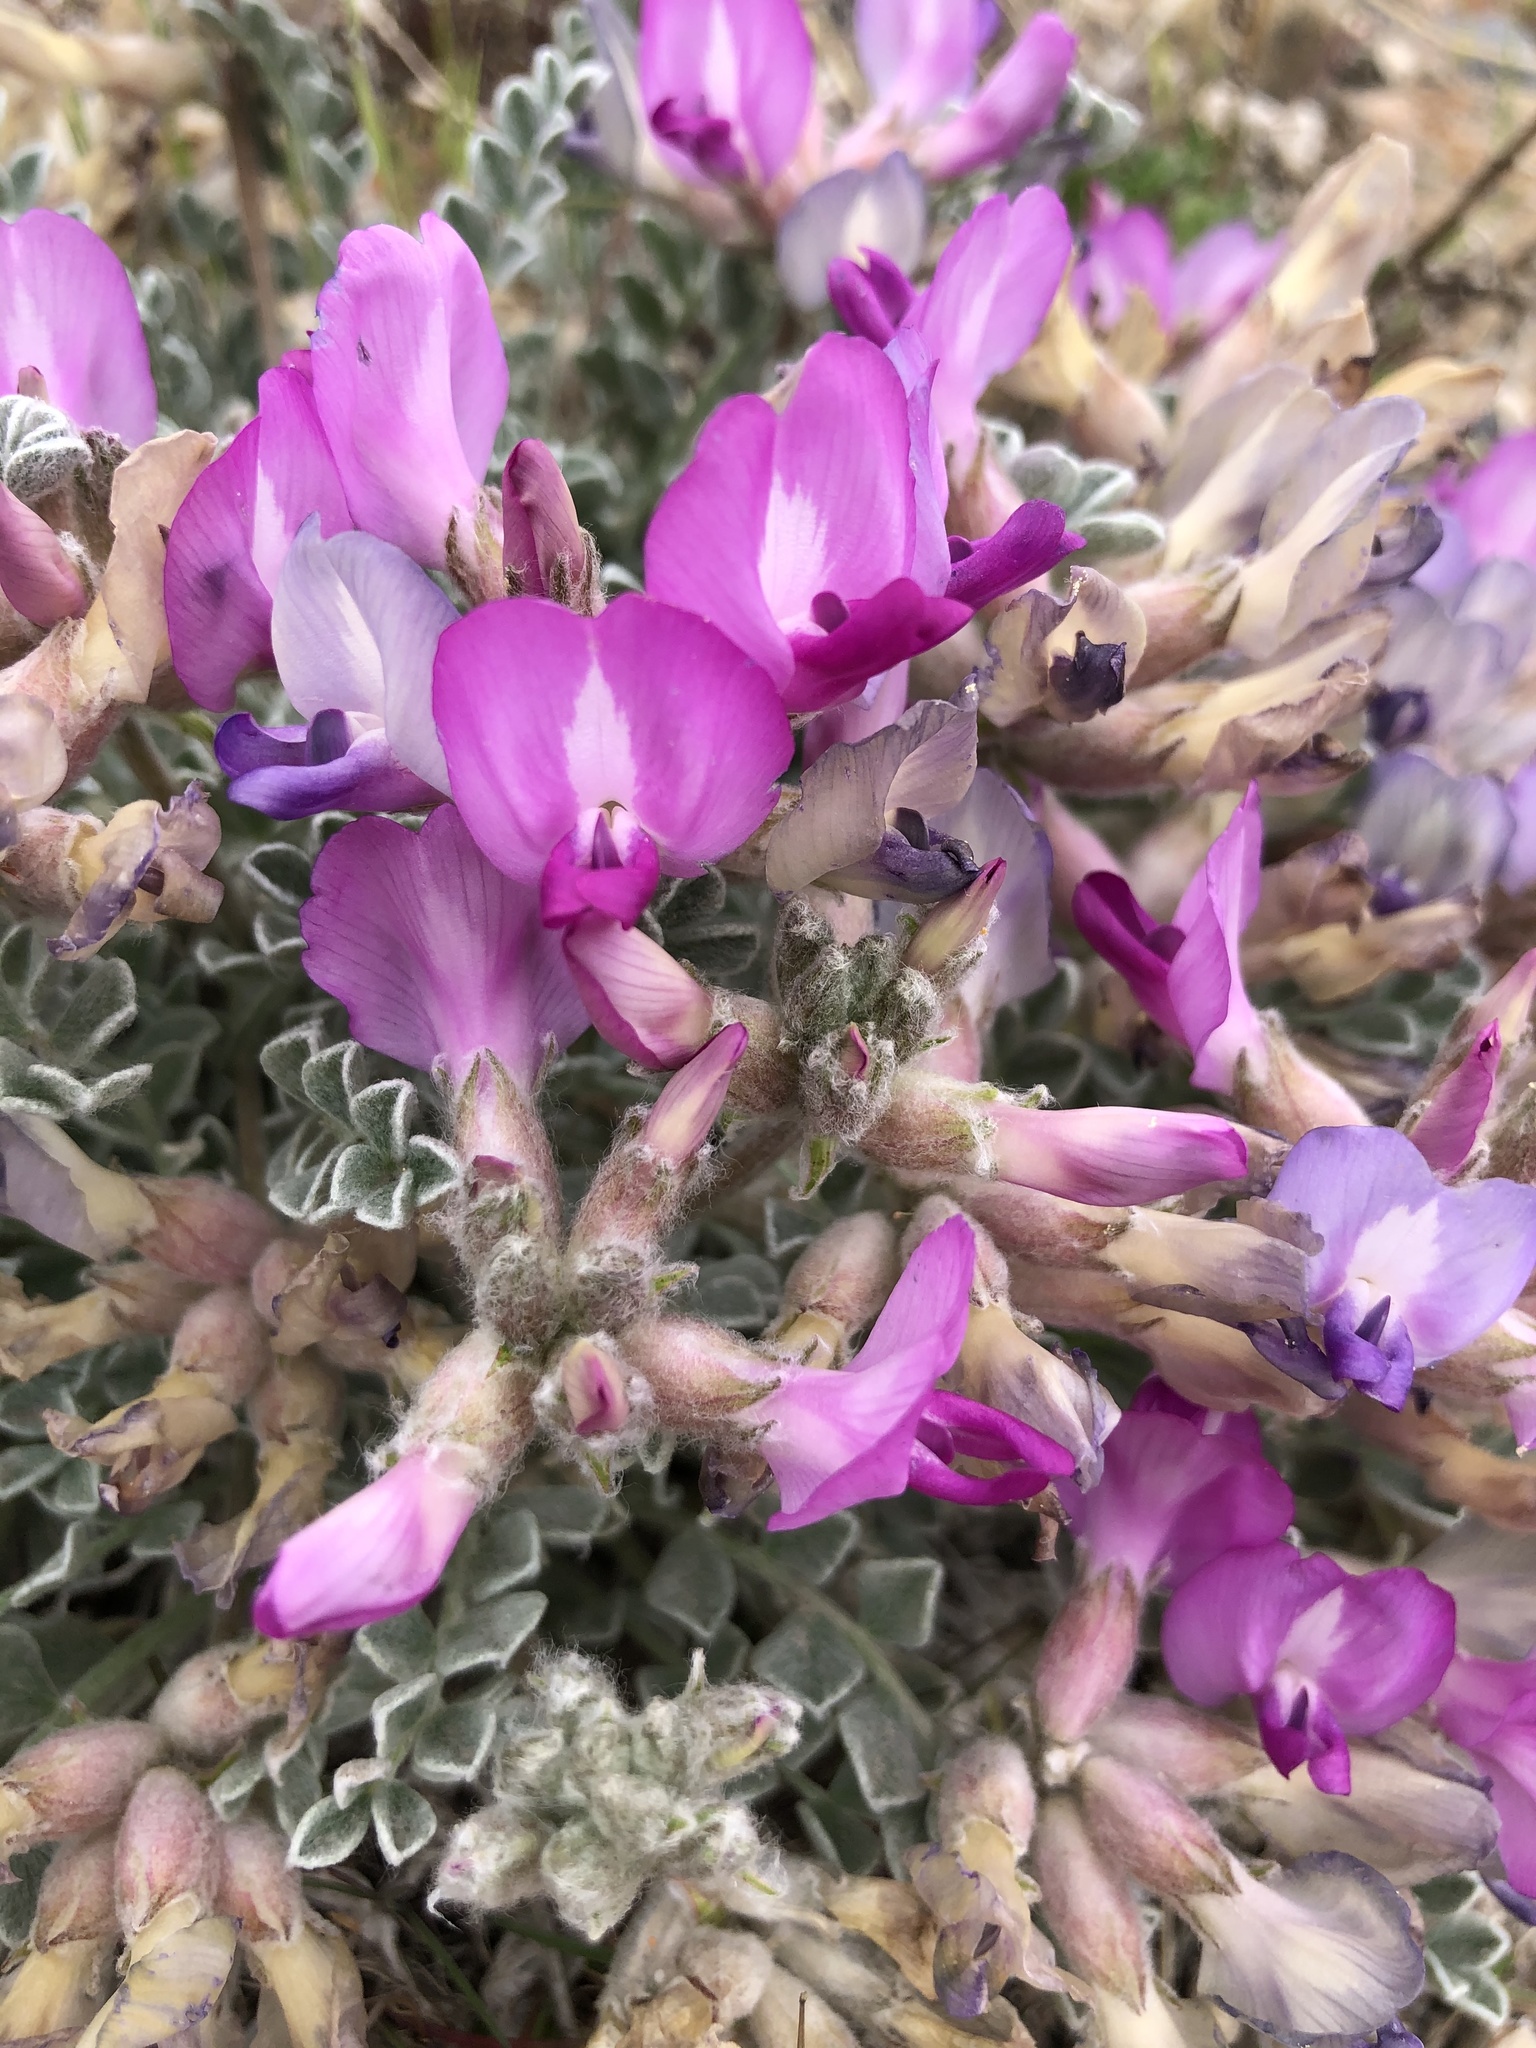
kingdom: Plantae
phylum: Tracheophyta
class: Magnoliopsida
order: Fabales
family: Fabaceae
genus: Astragalus
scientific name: Astragalus utahensis
